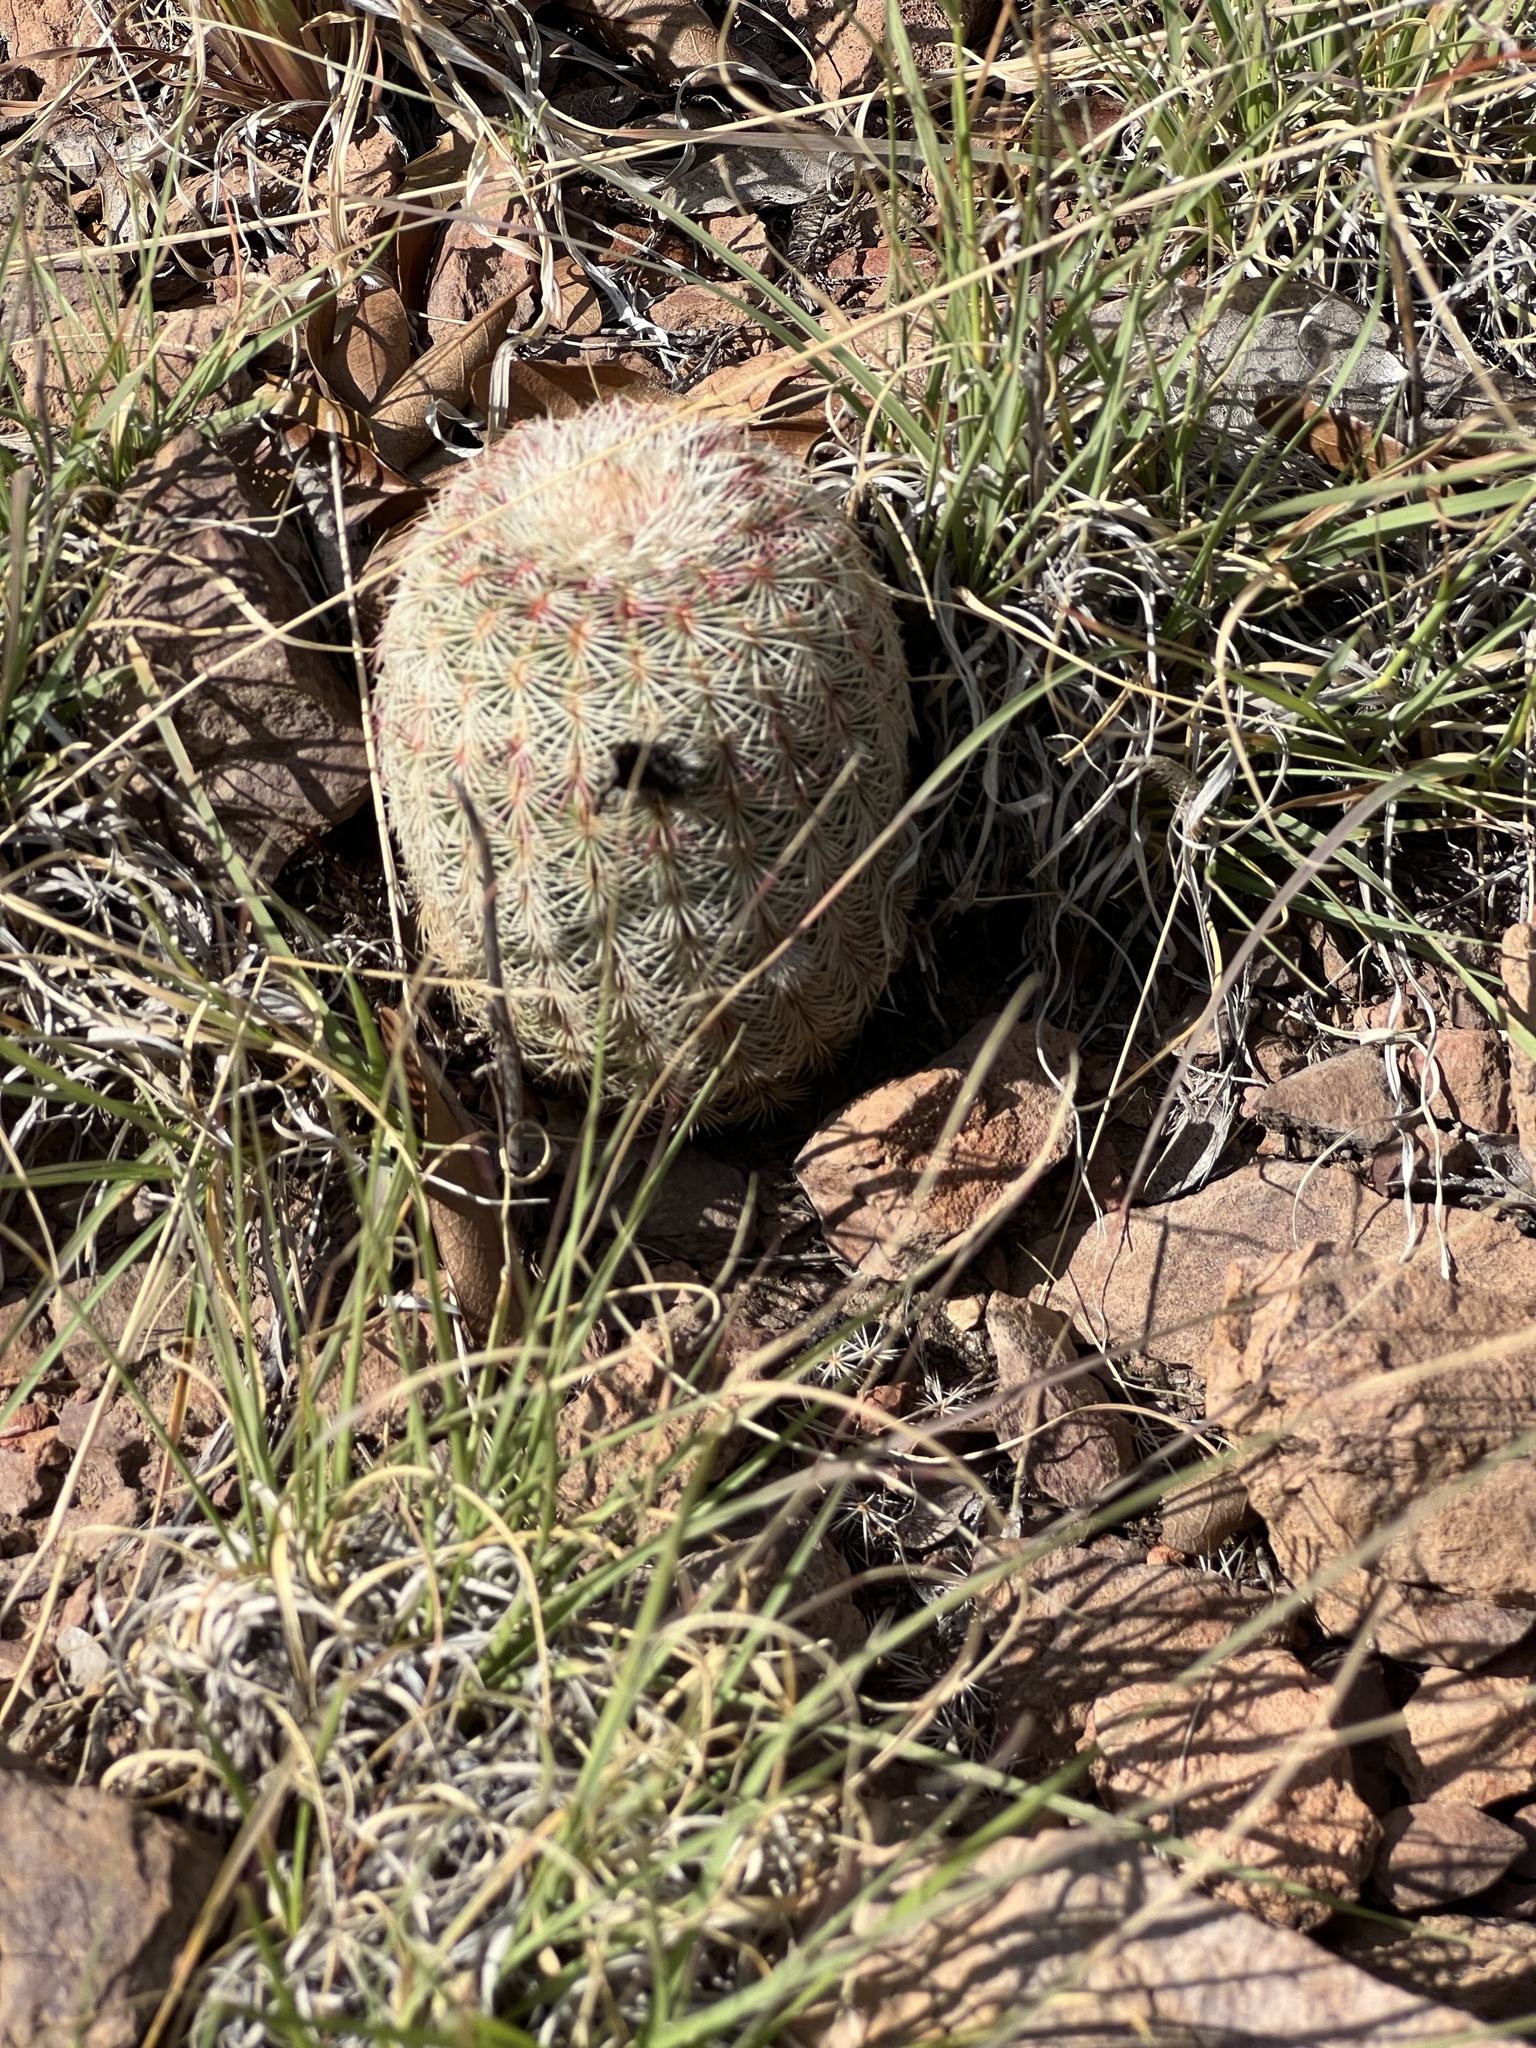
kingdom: Plantae
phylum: Tracheophyta
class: Magnoliopsida
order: Caryophyllales
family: Cactaceae
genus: Echinocereus
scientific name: Echinocereus rigidissimus
